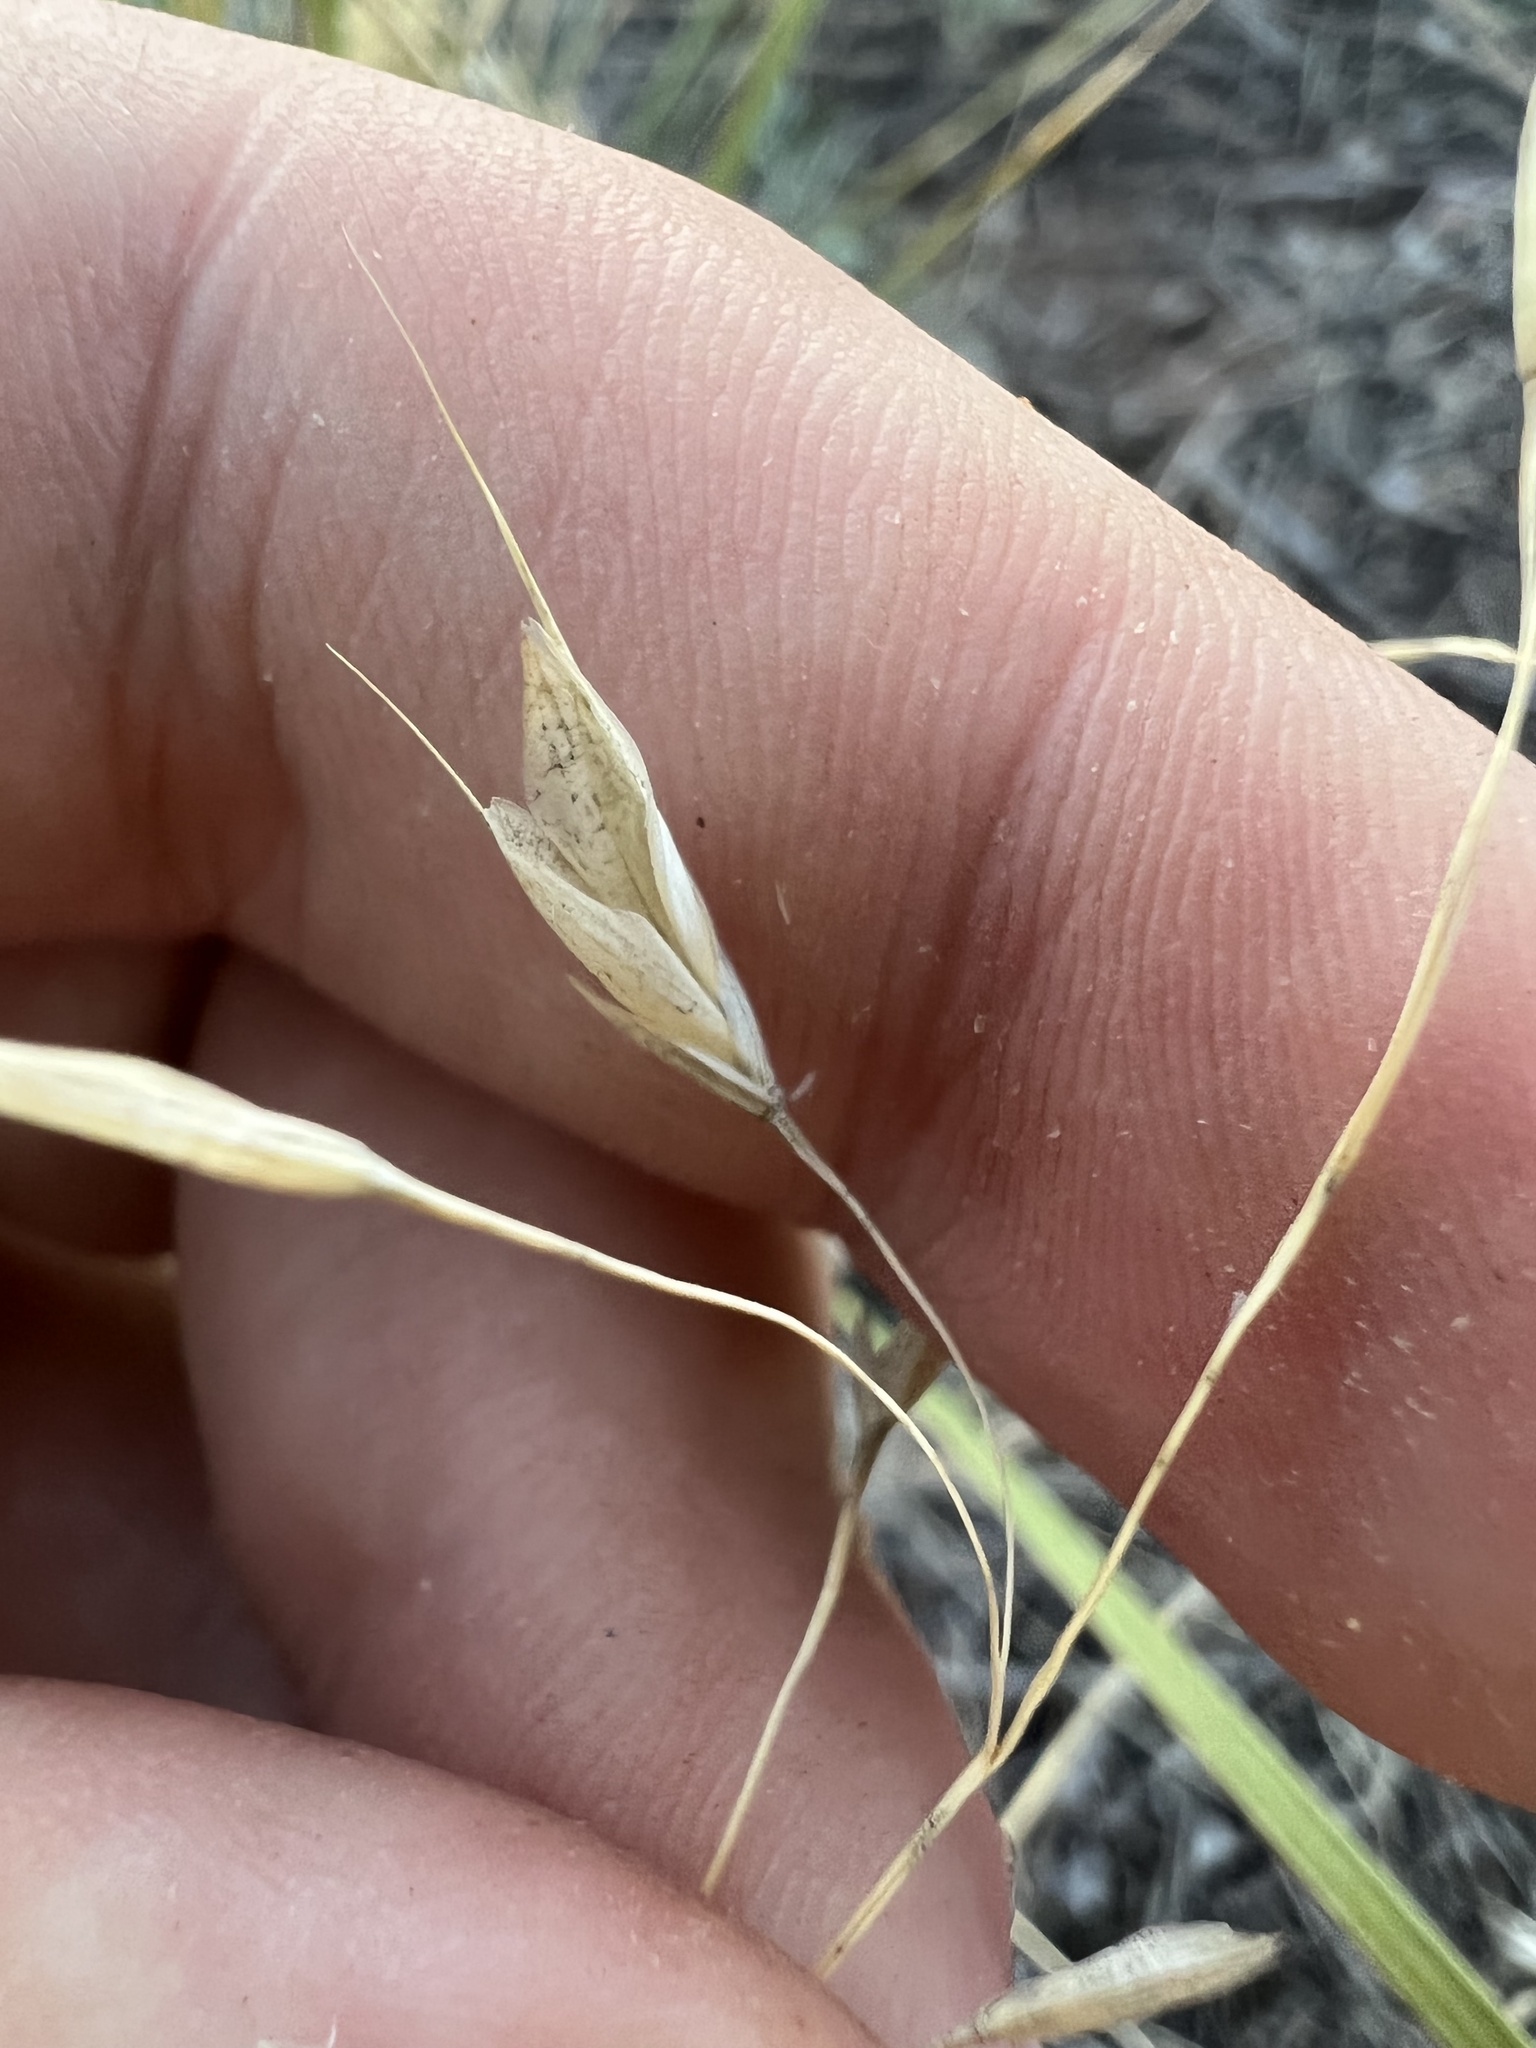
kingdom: Plantae
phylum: Tracheophyta
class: Liliopsida
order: Poales
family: Poaceae
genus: Bromus
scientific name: Bromus japonicus
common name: Japanese brome
